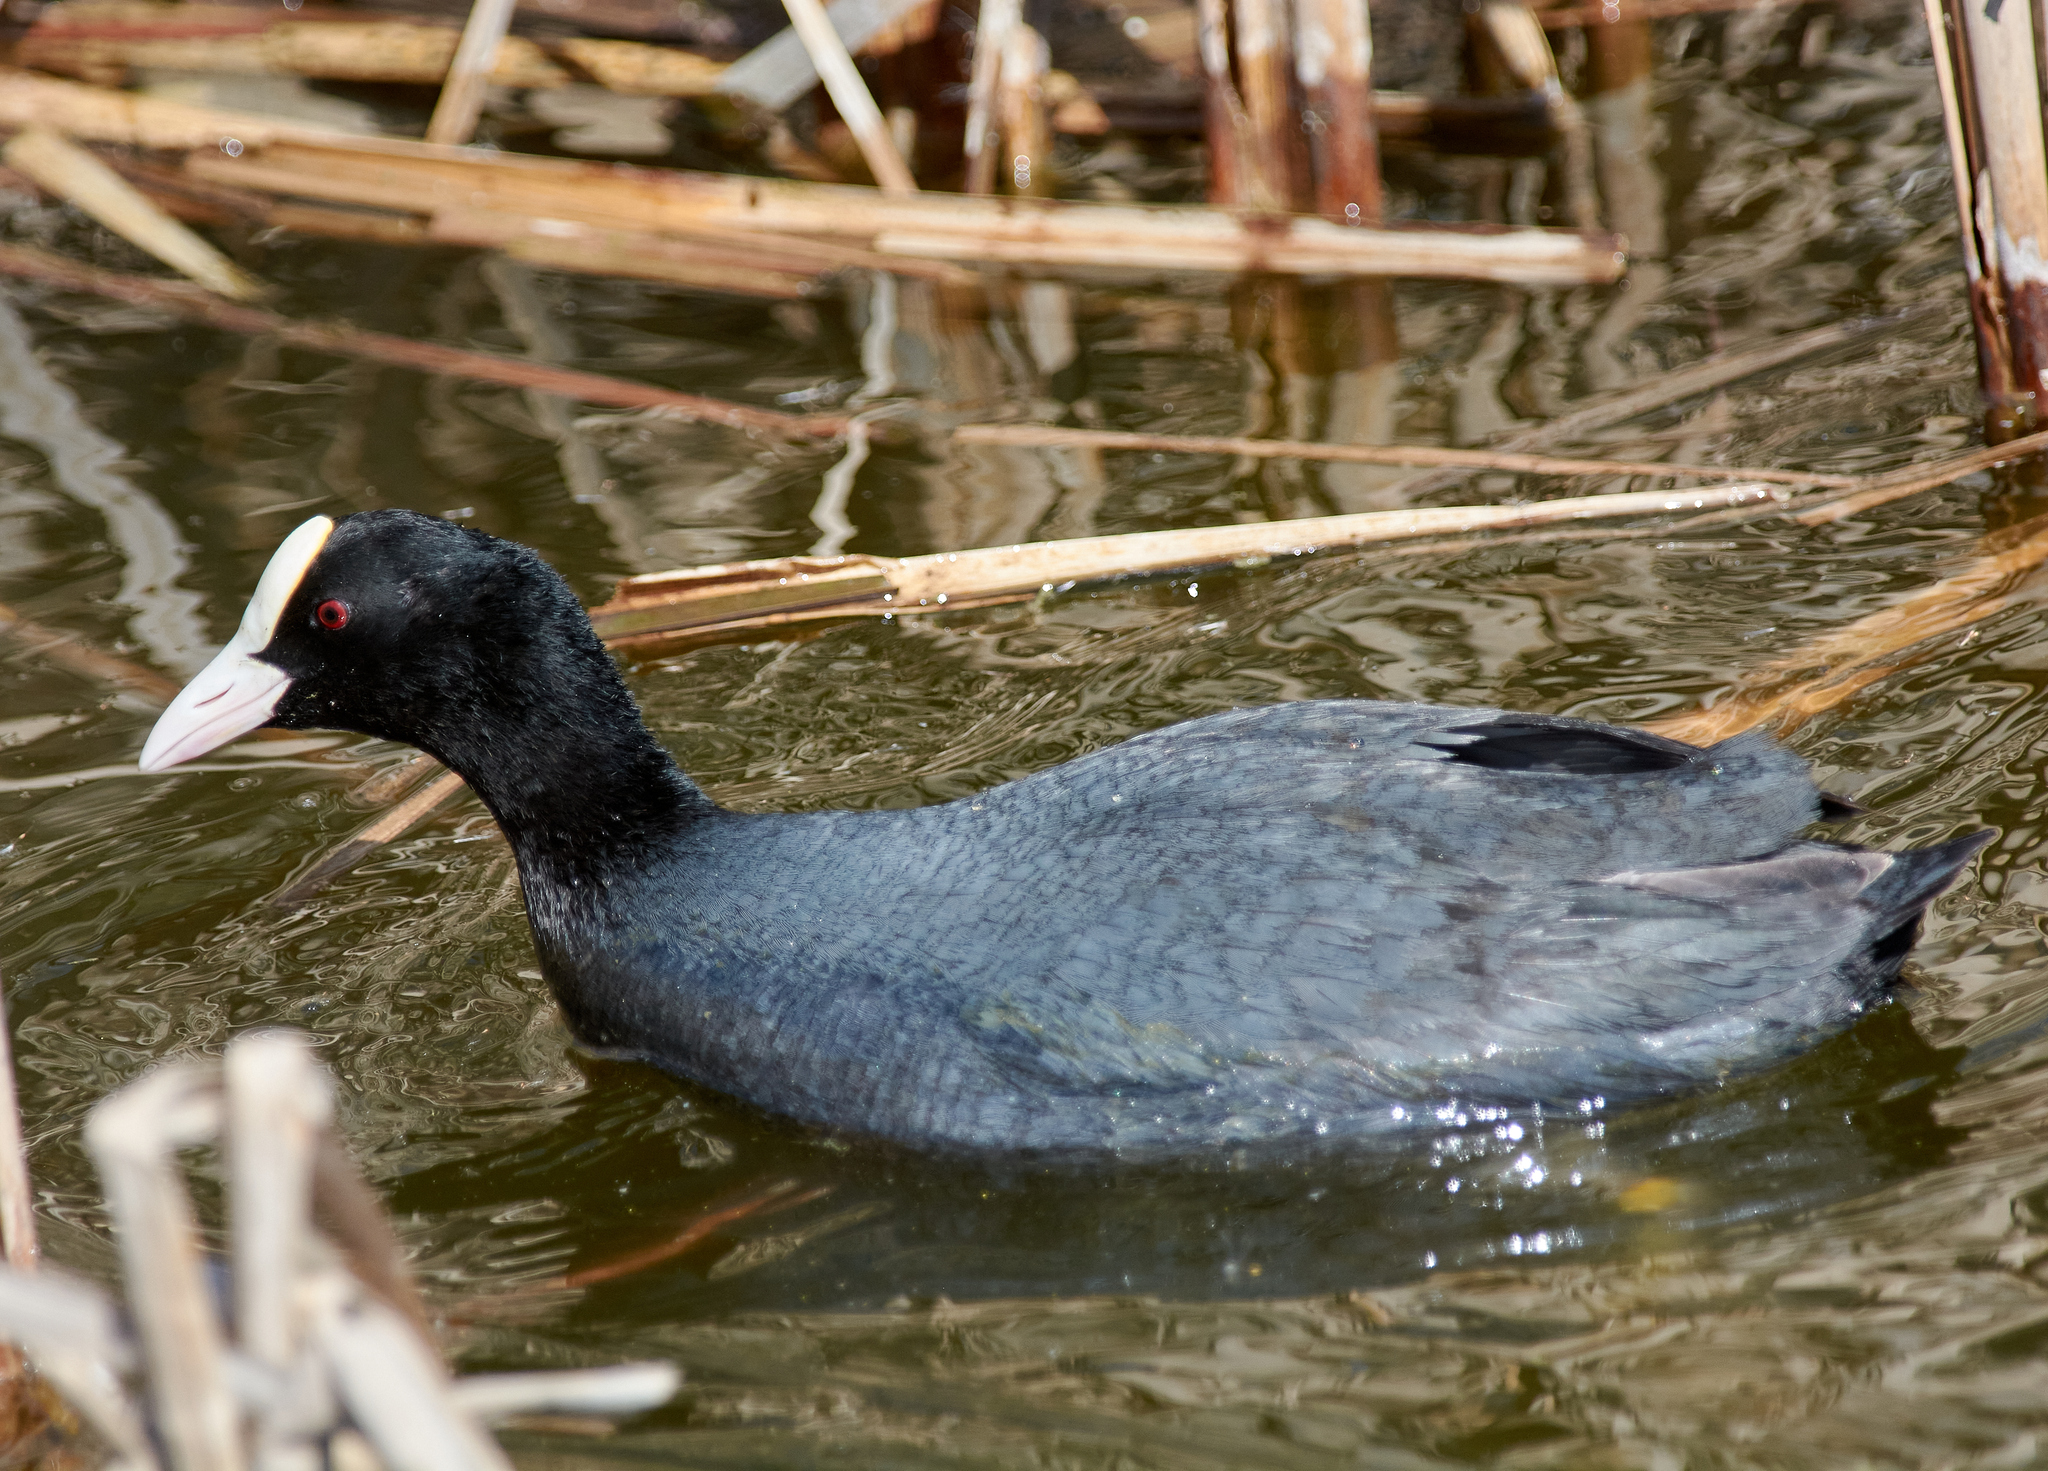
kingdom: Animalia
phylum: Chordata
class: Aves
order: Gruiformes
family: Rallidae
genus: Fulica
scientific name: Fulica atra
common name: Eurasian coot
